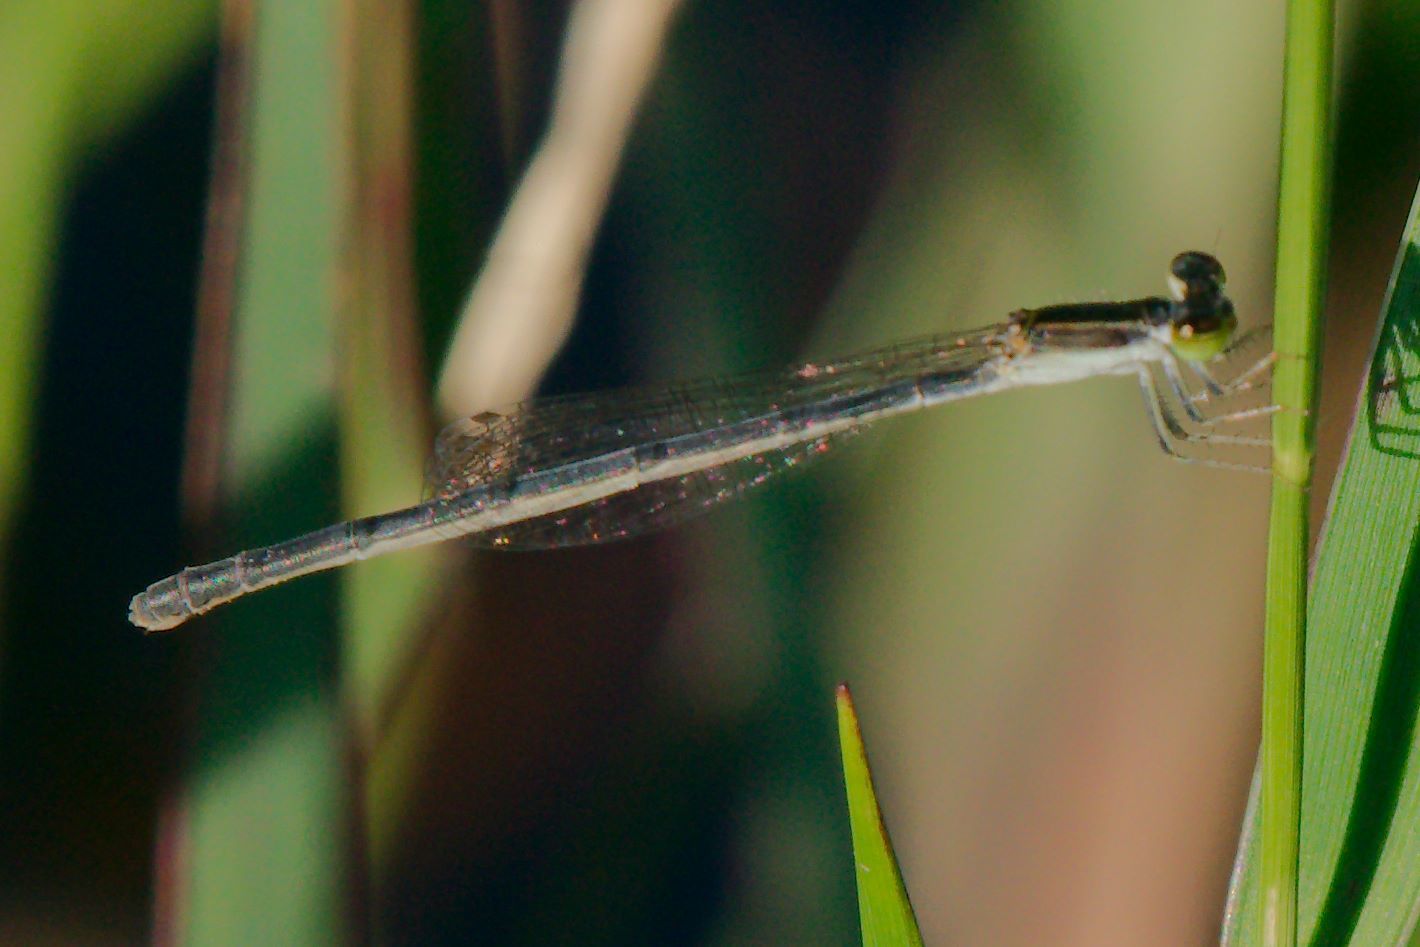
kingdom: Animalia
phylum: Arthropoda
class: Insecta
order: Odonata
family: Coenagrionidae
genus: Ischnura
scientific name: Ischnura hastata
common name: Citrine forktail
